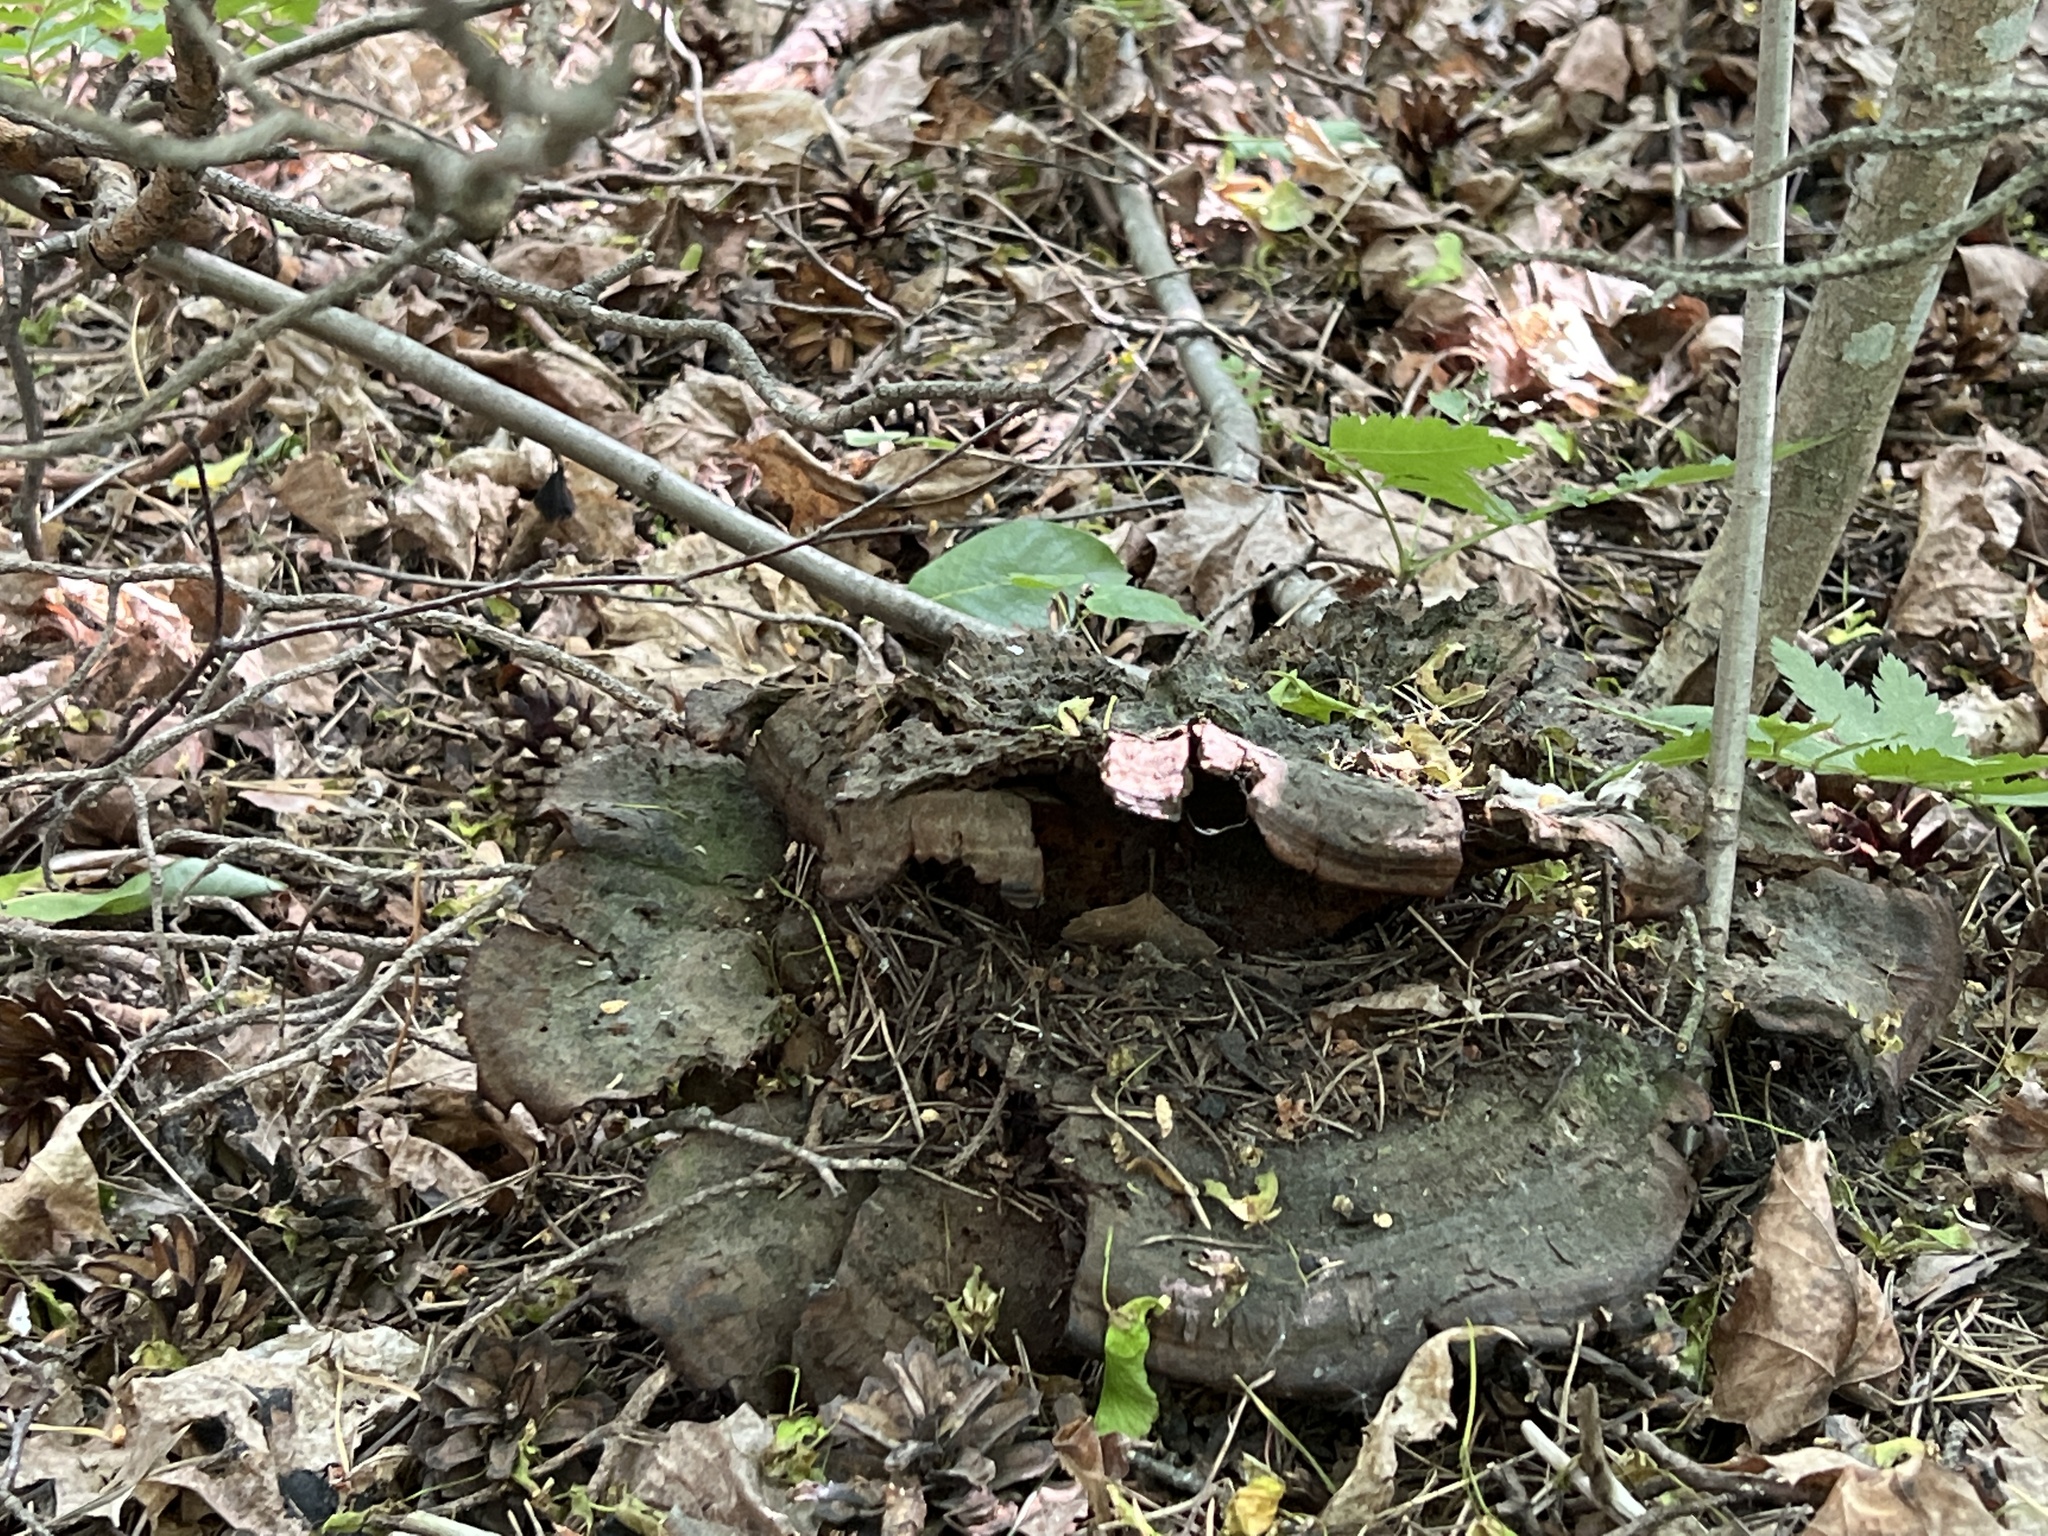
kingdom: Fungi
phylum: Basidiomycota
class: Agaricomycetes
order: Polyporales
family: Laetiporaceae
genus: Phaeolus
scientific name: Phaeolus schweinitzii
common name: Dyer's mazegill
